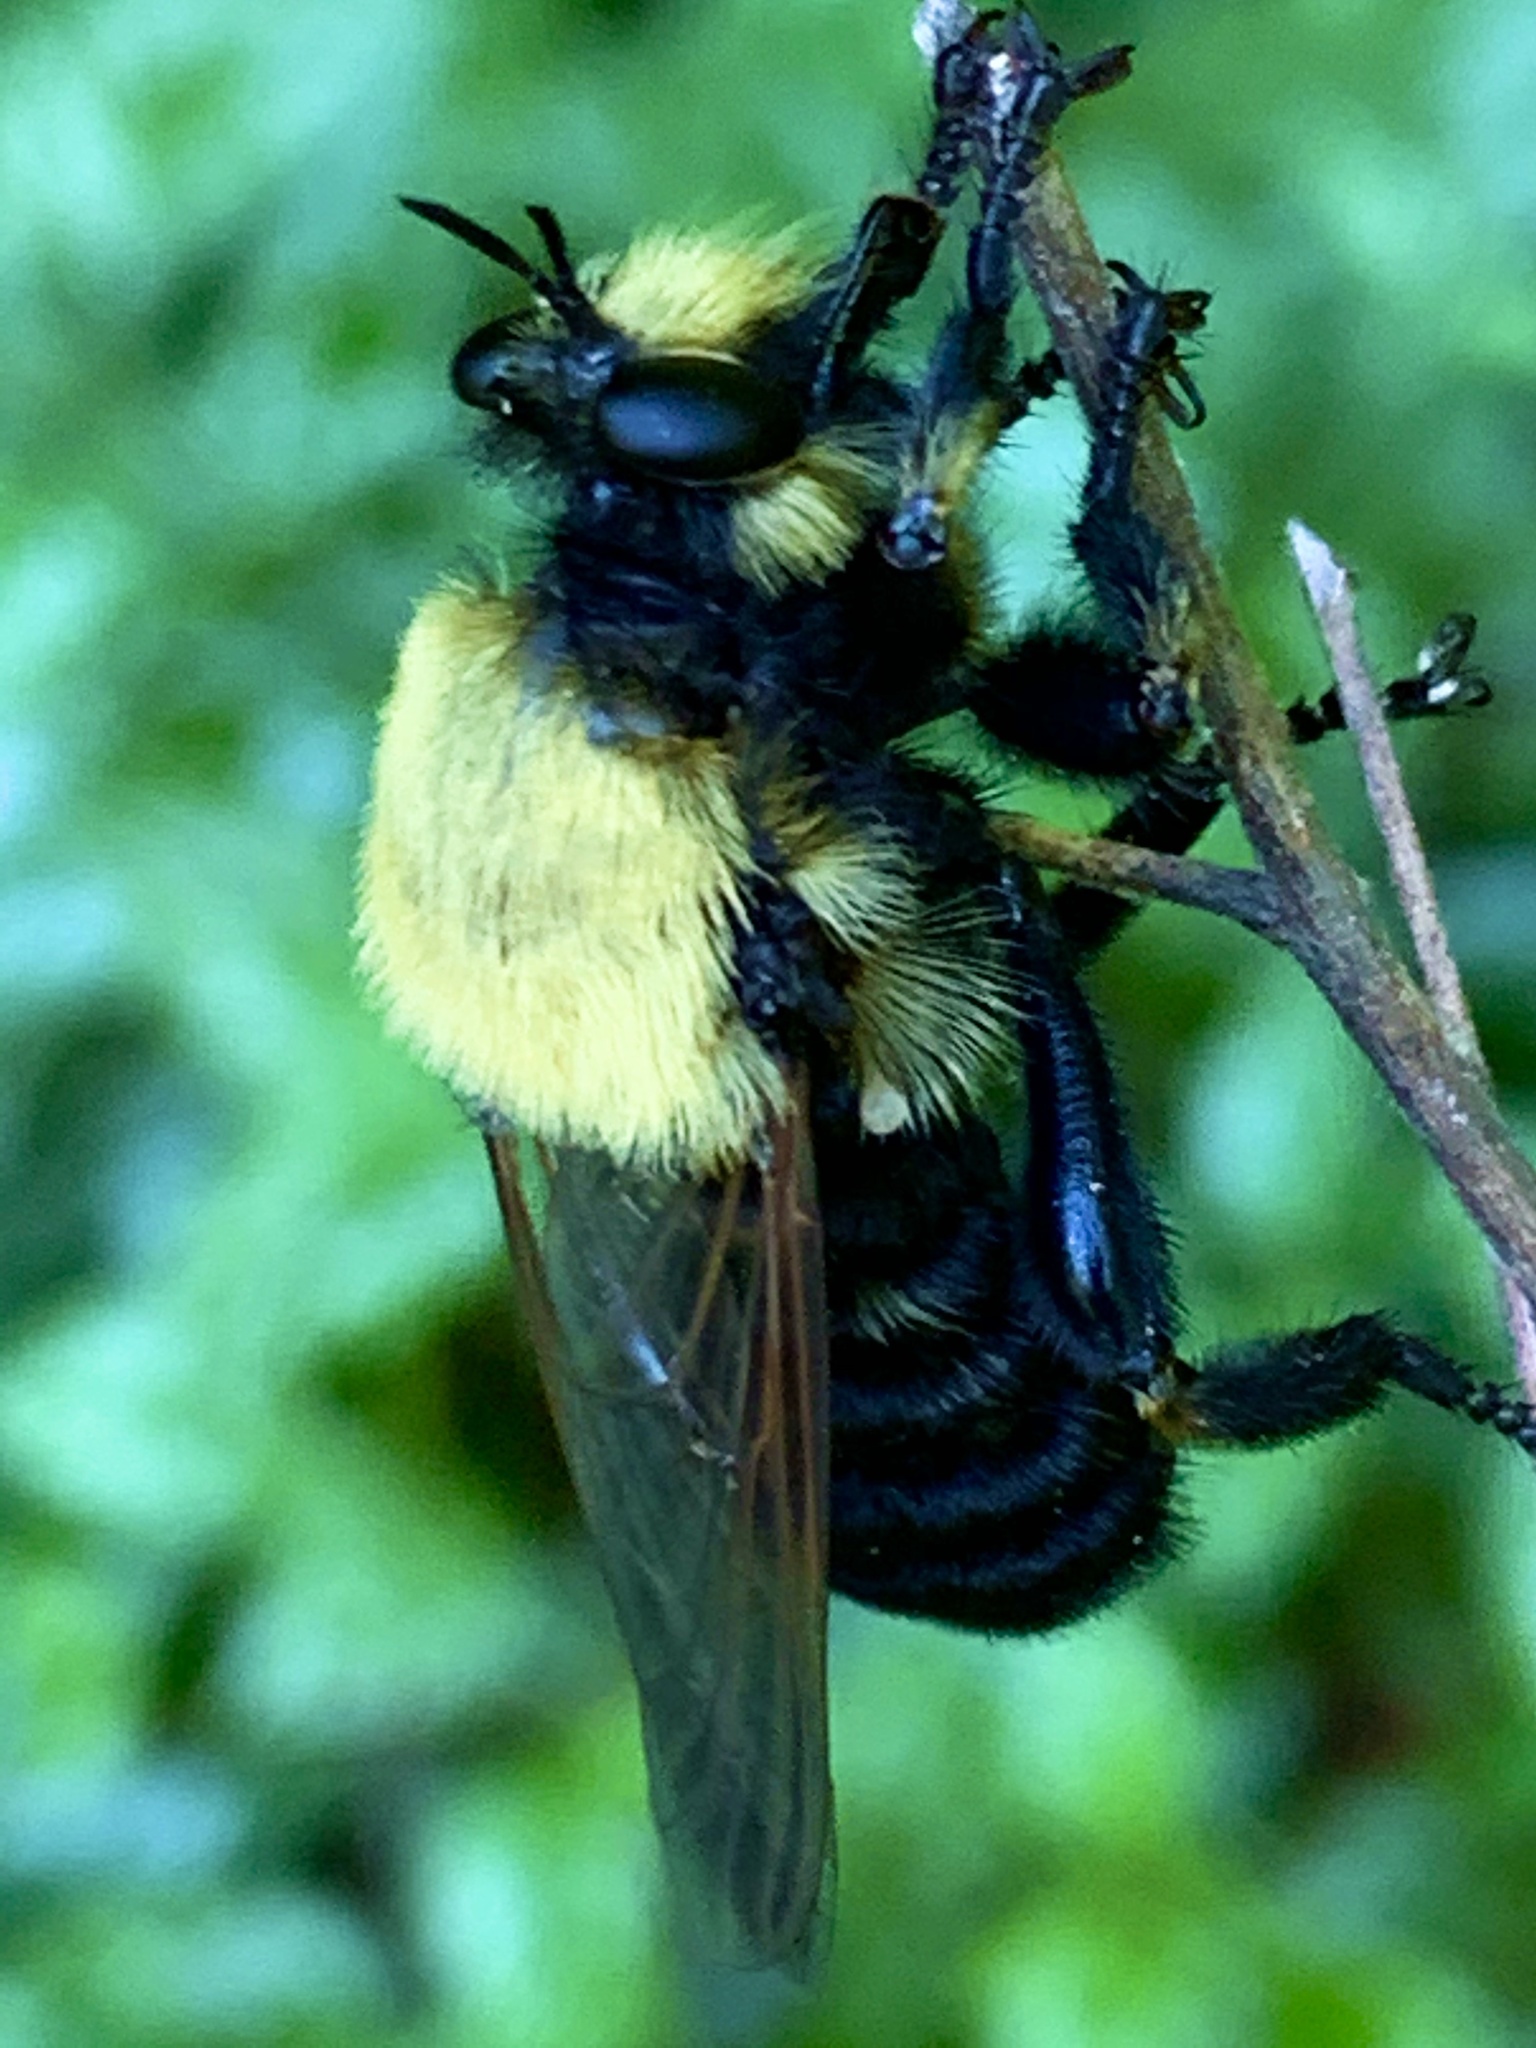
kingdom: Animalia
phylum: Arthropoda
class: Insecta
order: Diptera
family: Asilidae
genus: Laphria
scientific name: Laphria grossa
